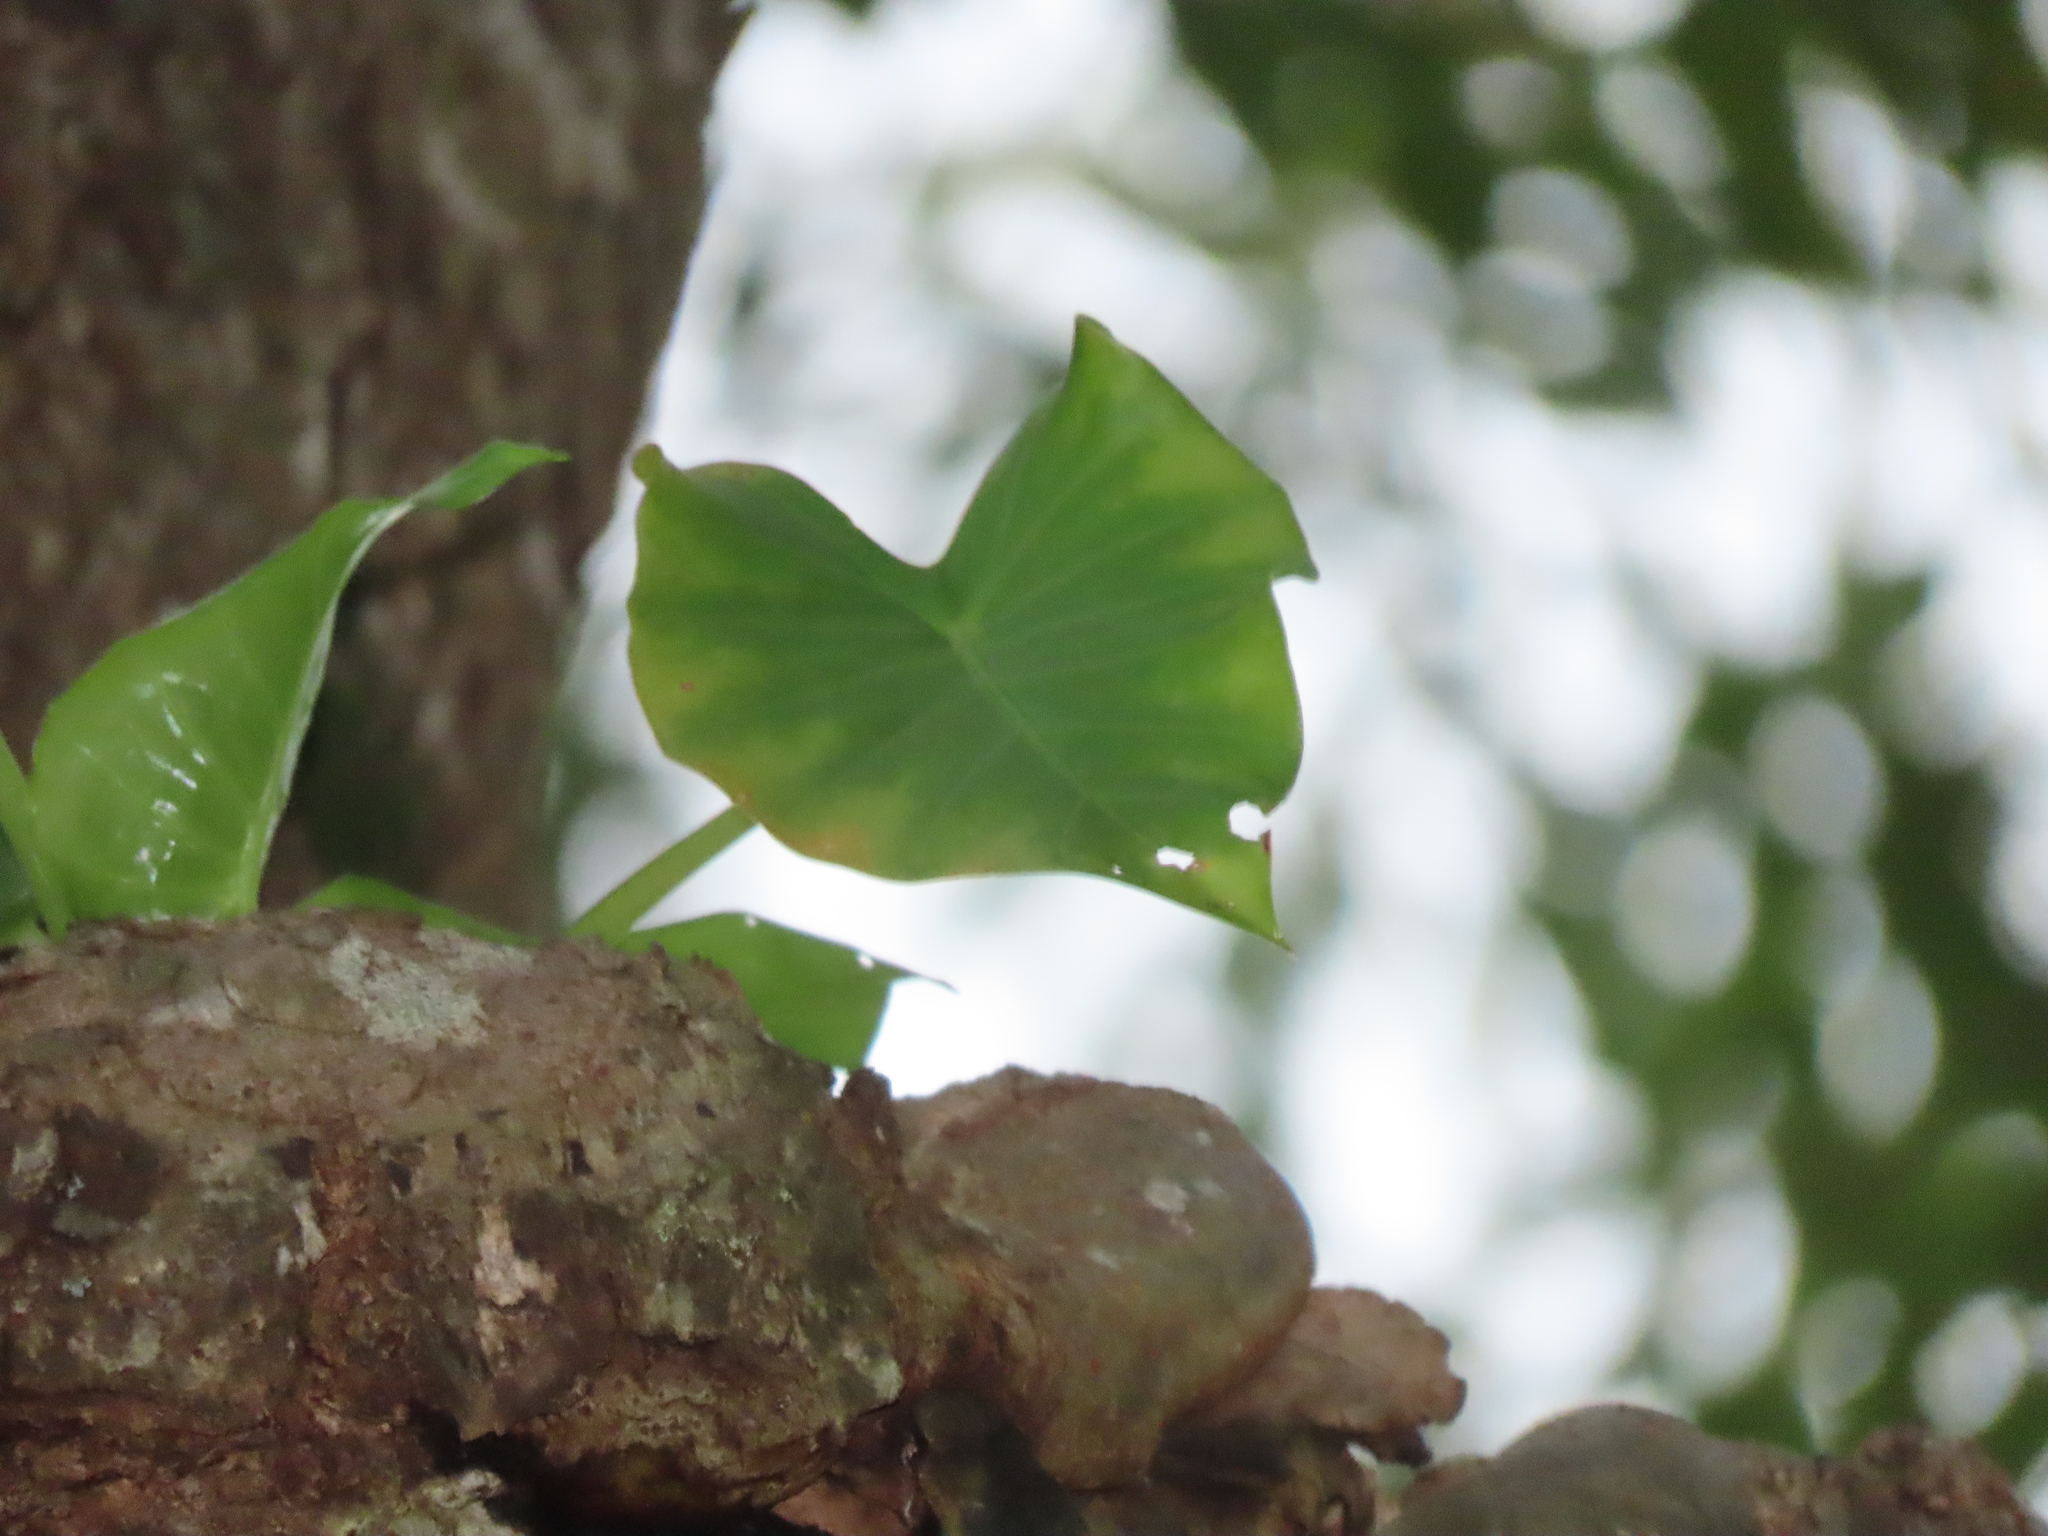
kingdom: Plantae
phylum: Tracheophyta
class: Liliopsida
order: Alismatales
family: Araceae
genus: Alocasia
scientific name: Alocasia odora
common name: Asian taro
